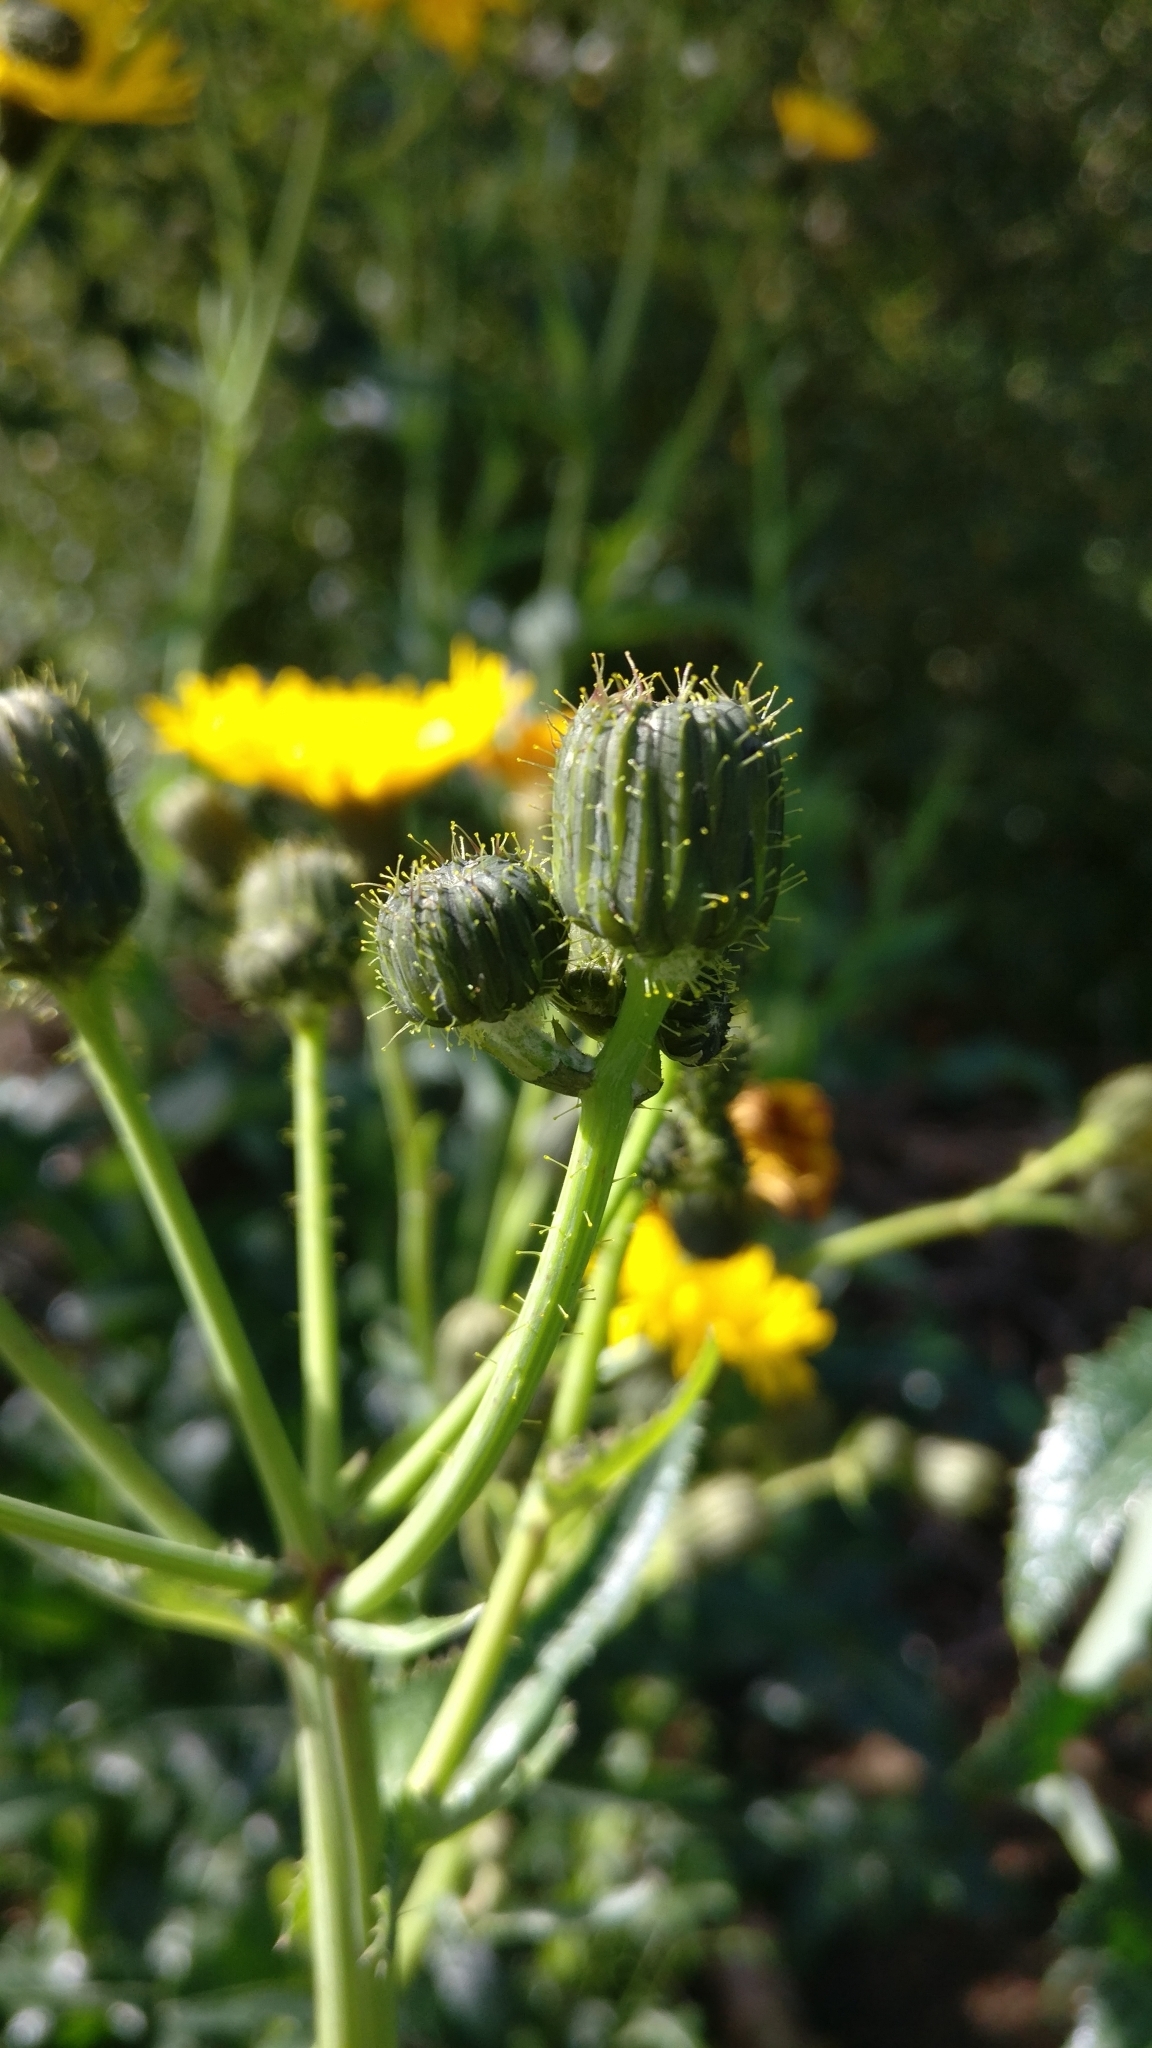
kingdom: Plantae
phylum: Tracheophyta
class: Magnoliopsida
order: Asterales
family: Asteraceae
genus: Sonchus
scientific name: Sonchus arvensis
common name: Perennial sow-thistle
